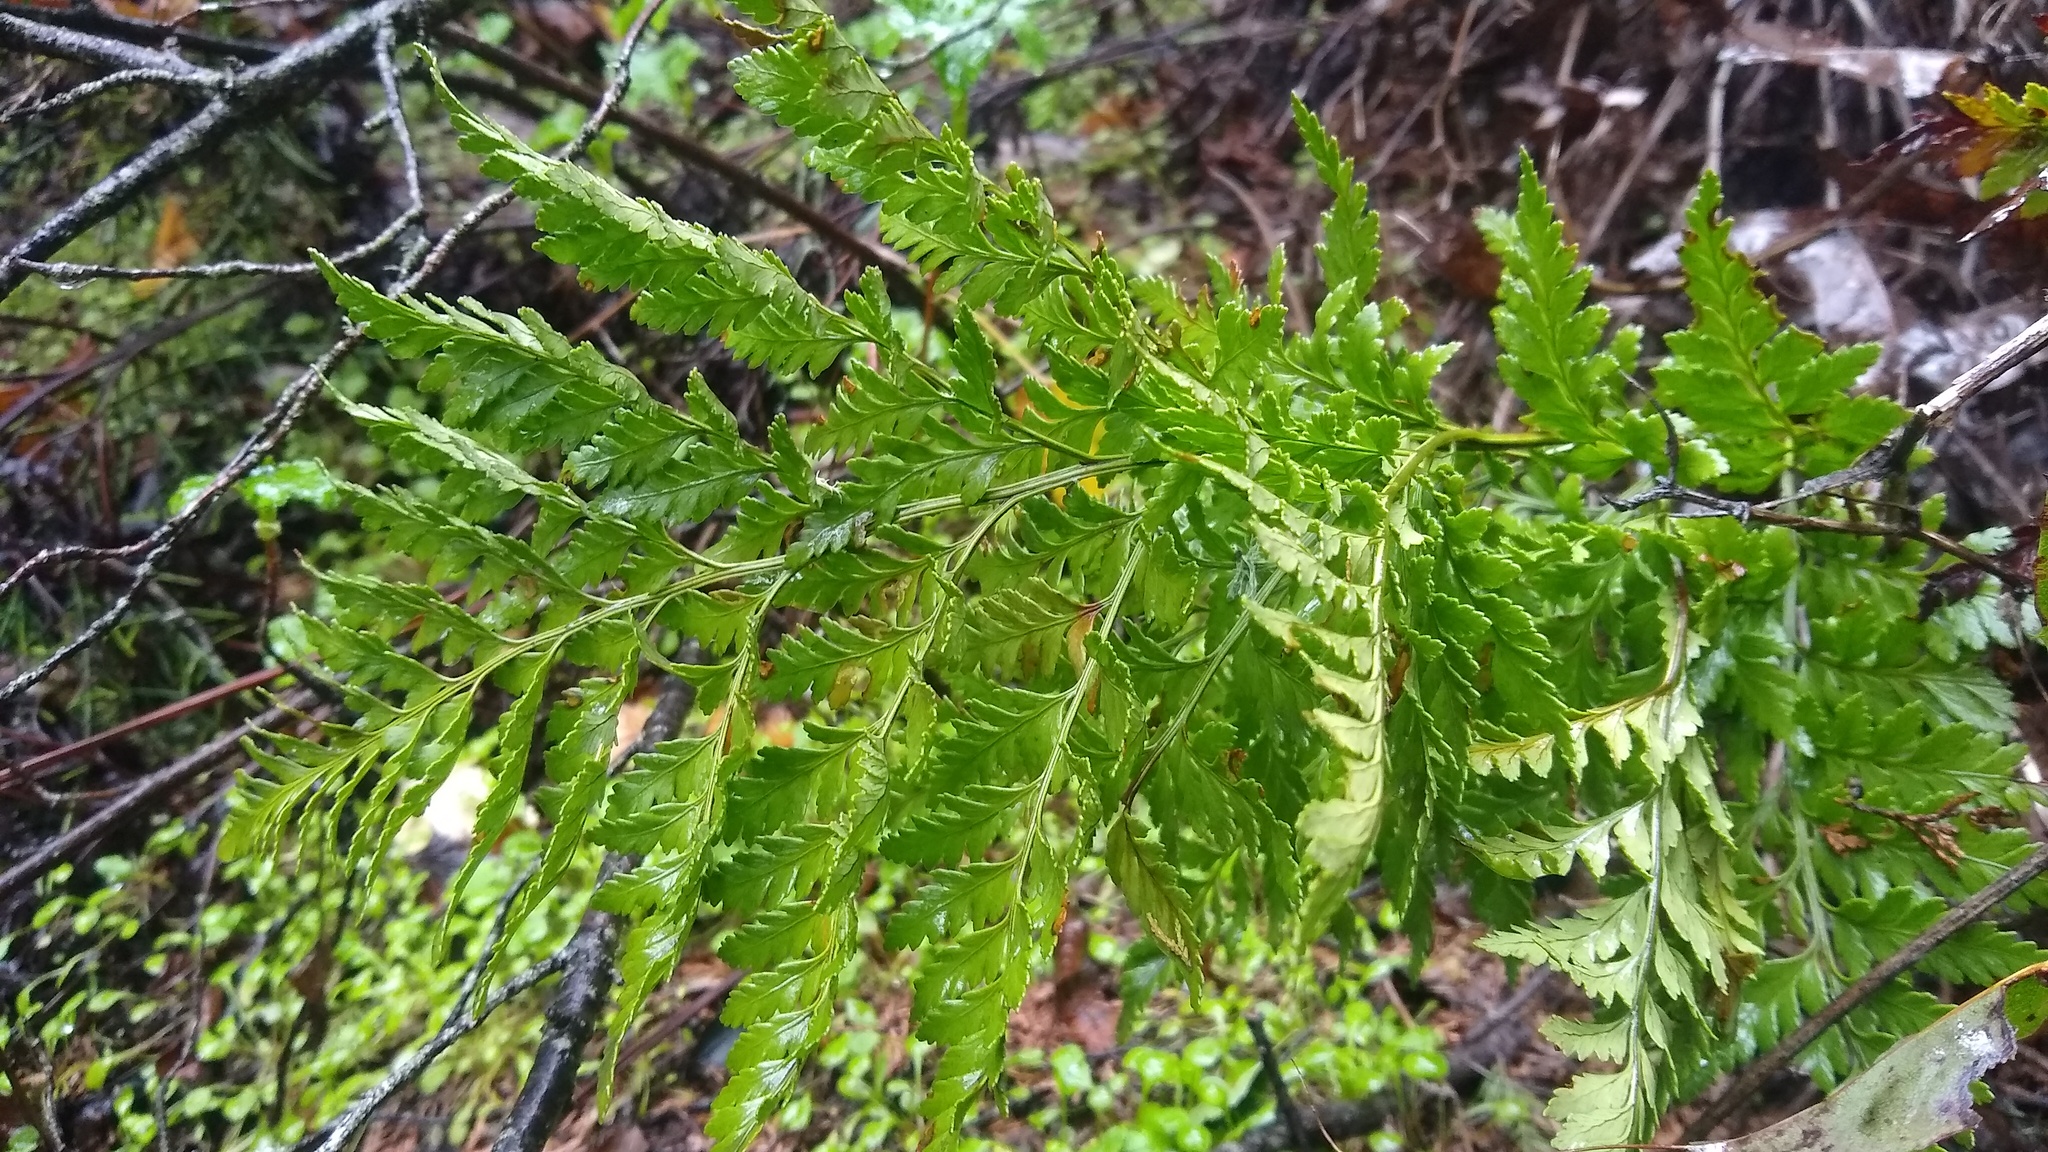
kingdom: Plantae
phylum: Tracheophyta
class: Polypodiopsida
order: Polypodiales
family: Dryopteridaceae
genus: Rumohra
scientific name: Rumohra adiantiformis
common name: Leather fern
